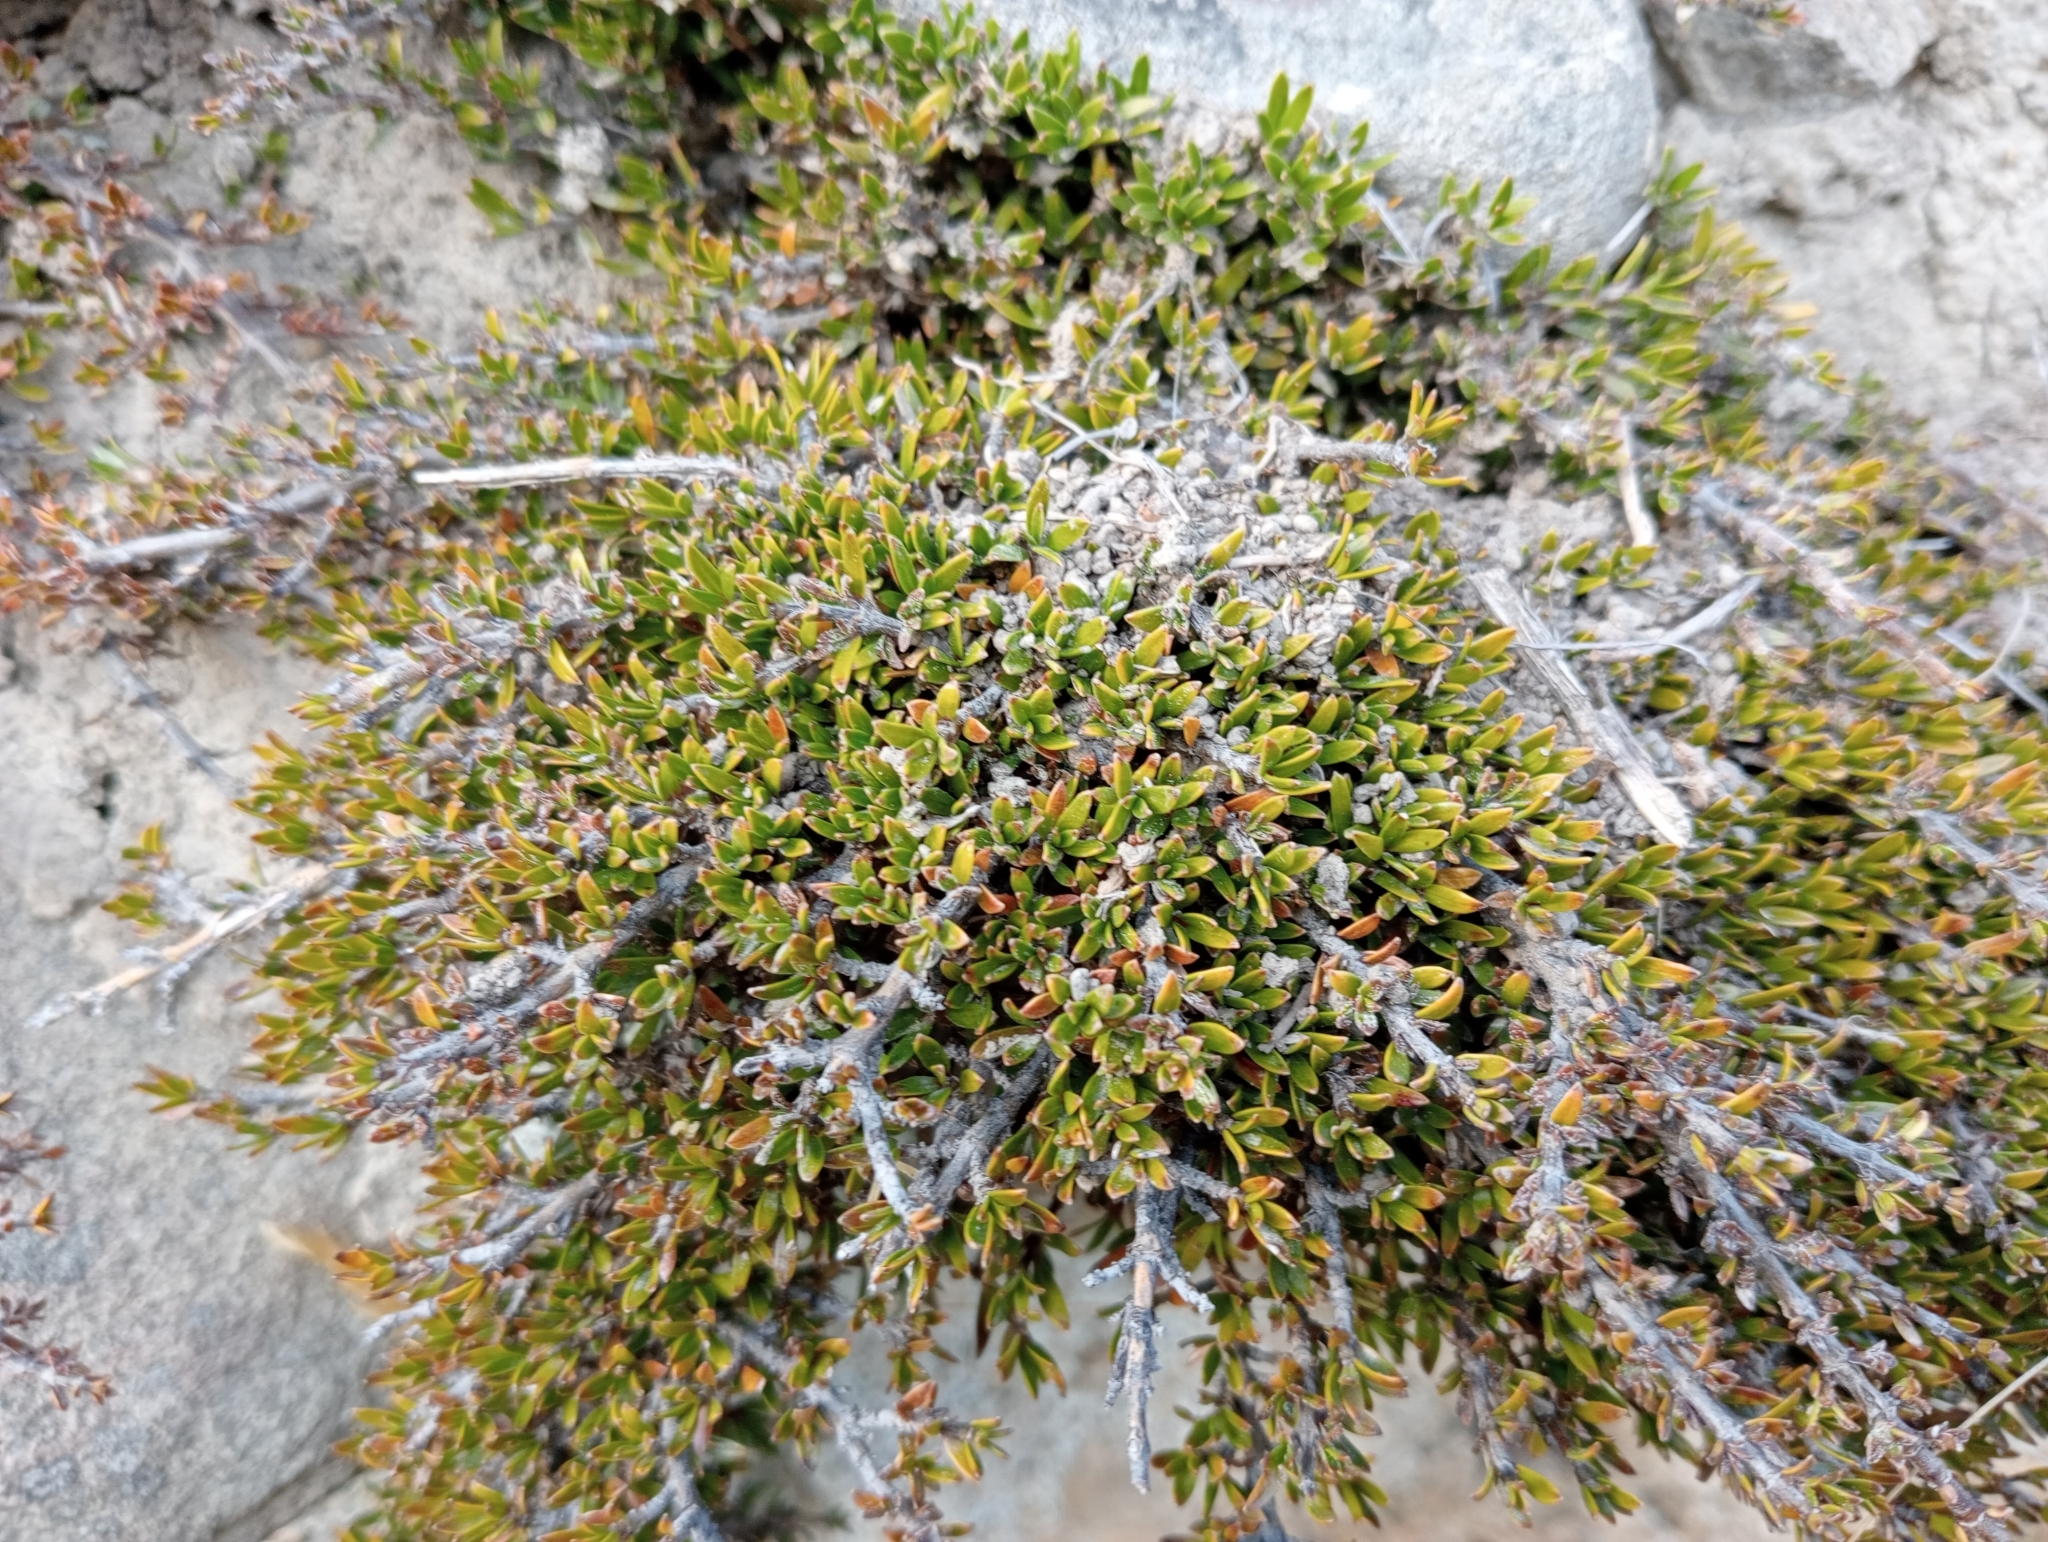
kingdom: Plantae
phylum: Tracheophyta
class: Magnoliopsida
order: Gentianales
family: Rubiaceae
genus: Coprosma
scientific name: Coprosma petriei
